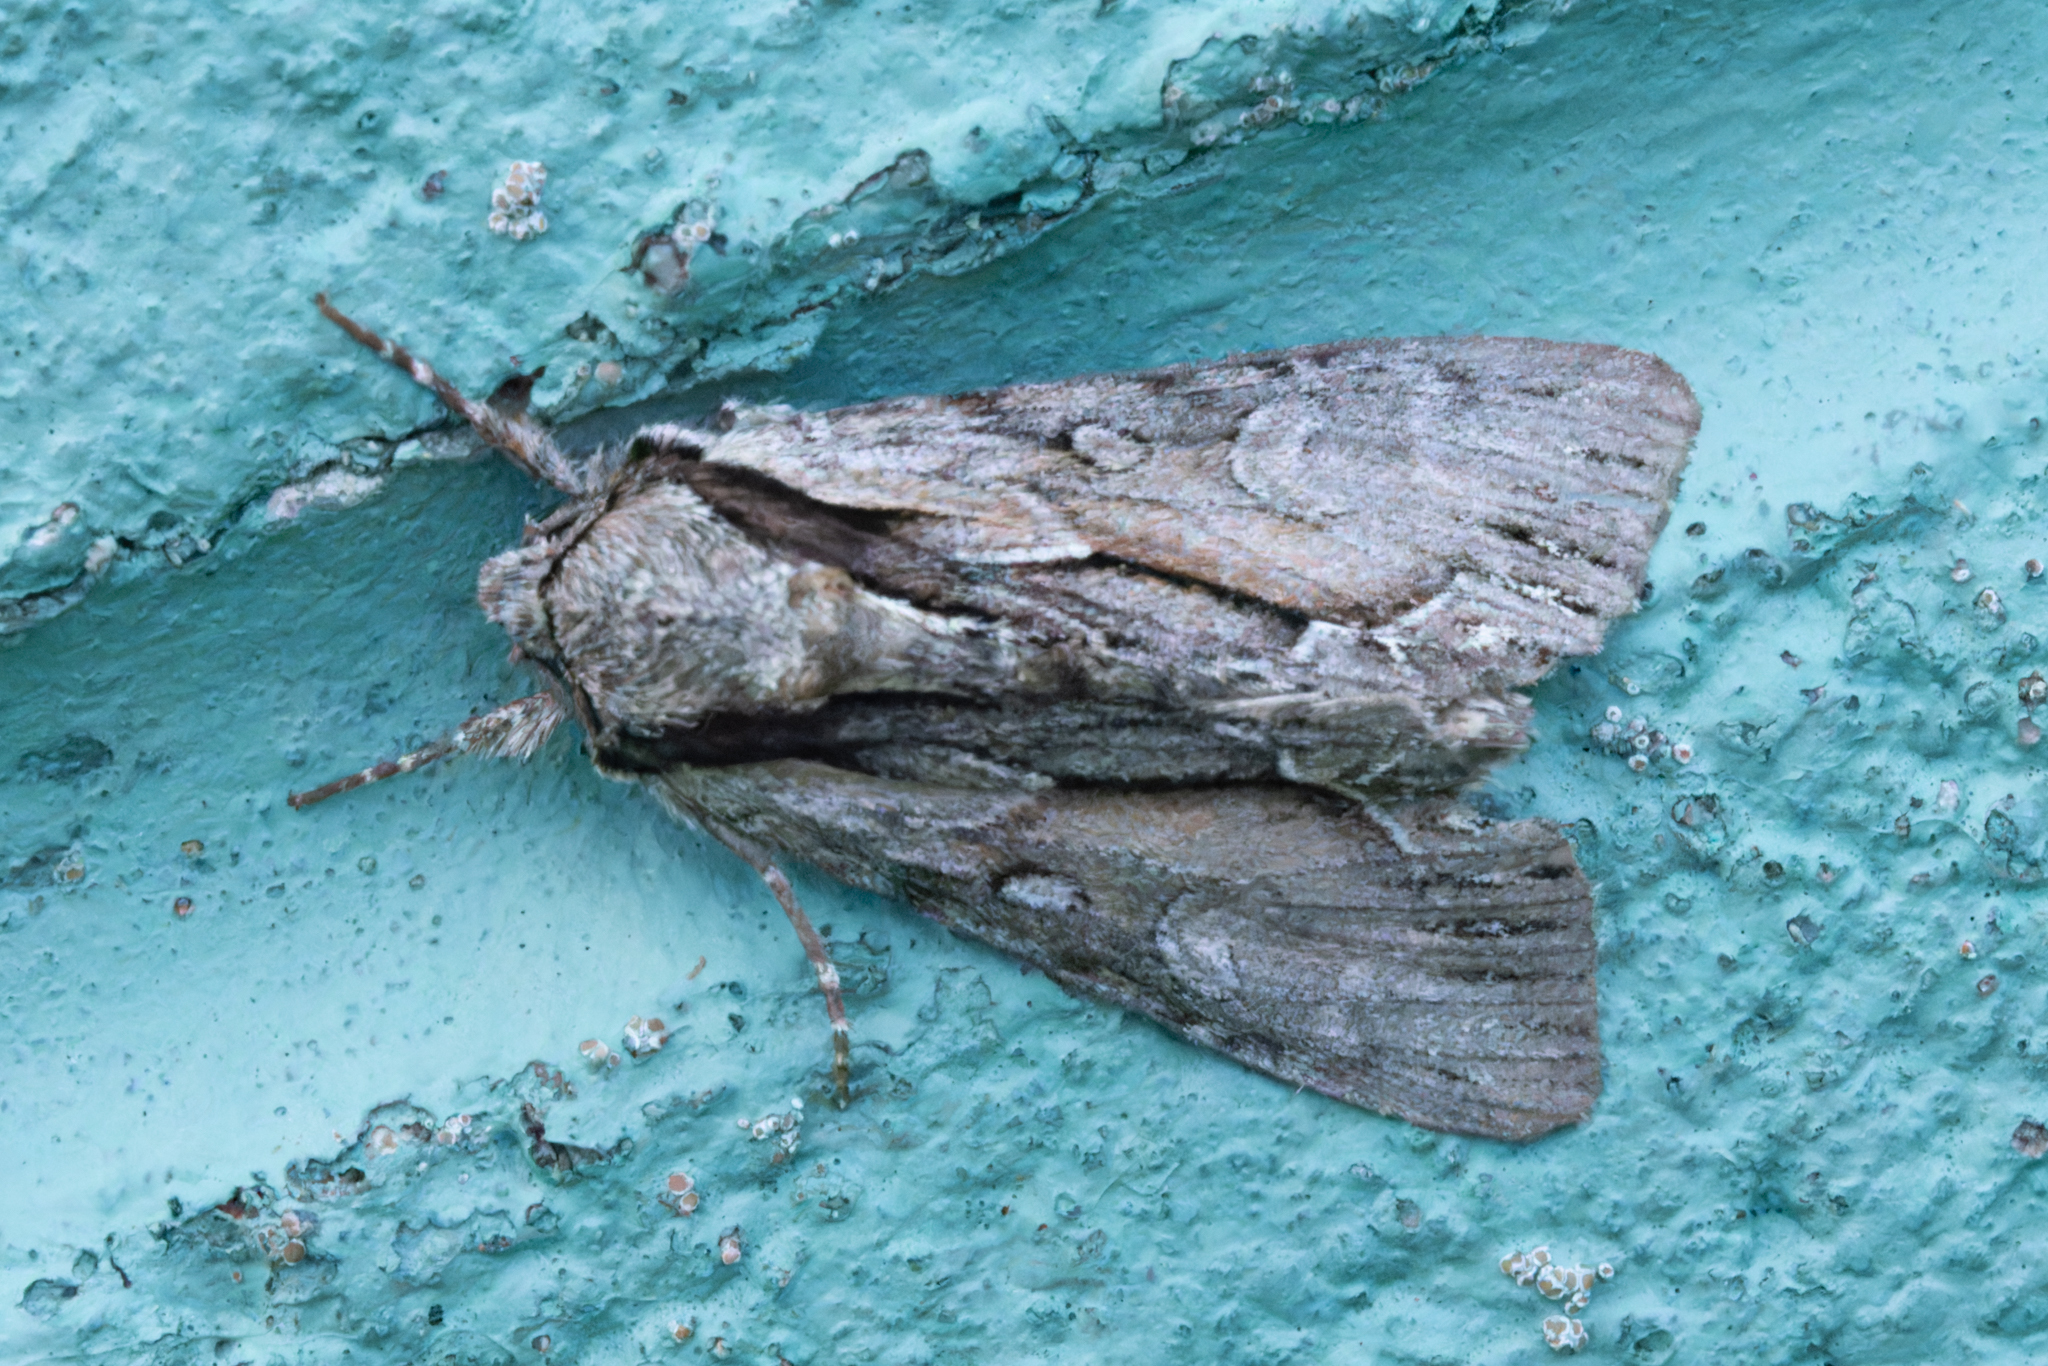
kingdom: Animalia
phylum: Arthropoda
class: Insecta
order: Lepidoptera
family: Noctuidae
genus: Hyppa
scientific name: Hyppa xylinoides
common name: Common hyppa moth
